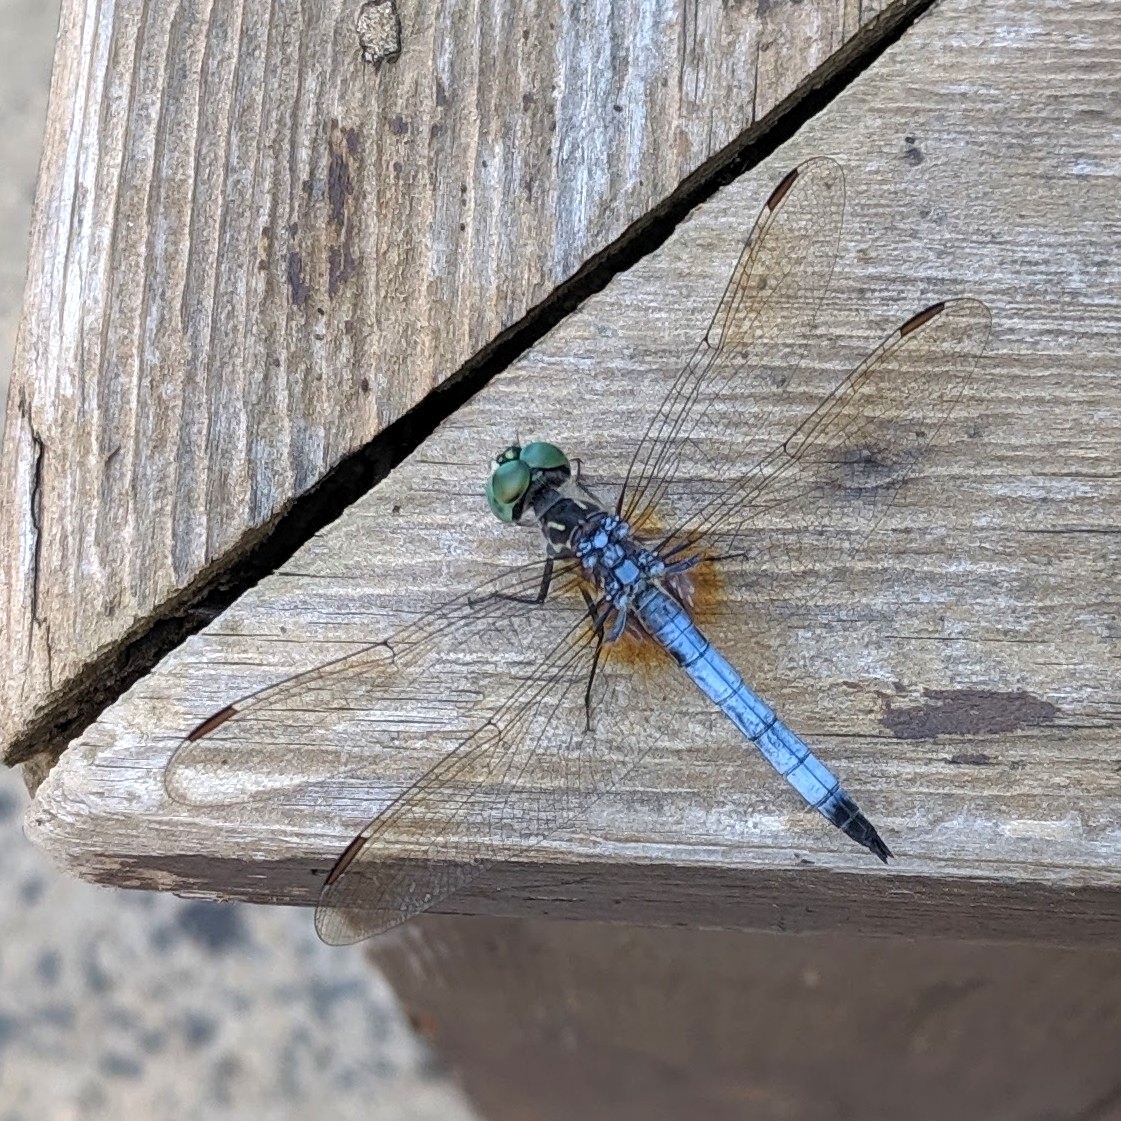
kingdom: Animalia
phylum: Arthropoda
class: Insecta
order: Odonata
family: Libellulidae
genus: Pachydiplax
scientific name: Pachydiplax longipennis
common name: Blue dasher
